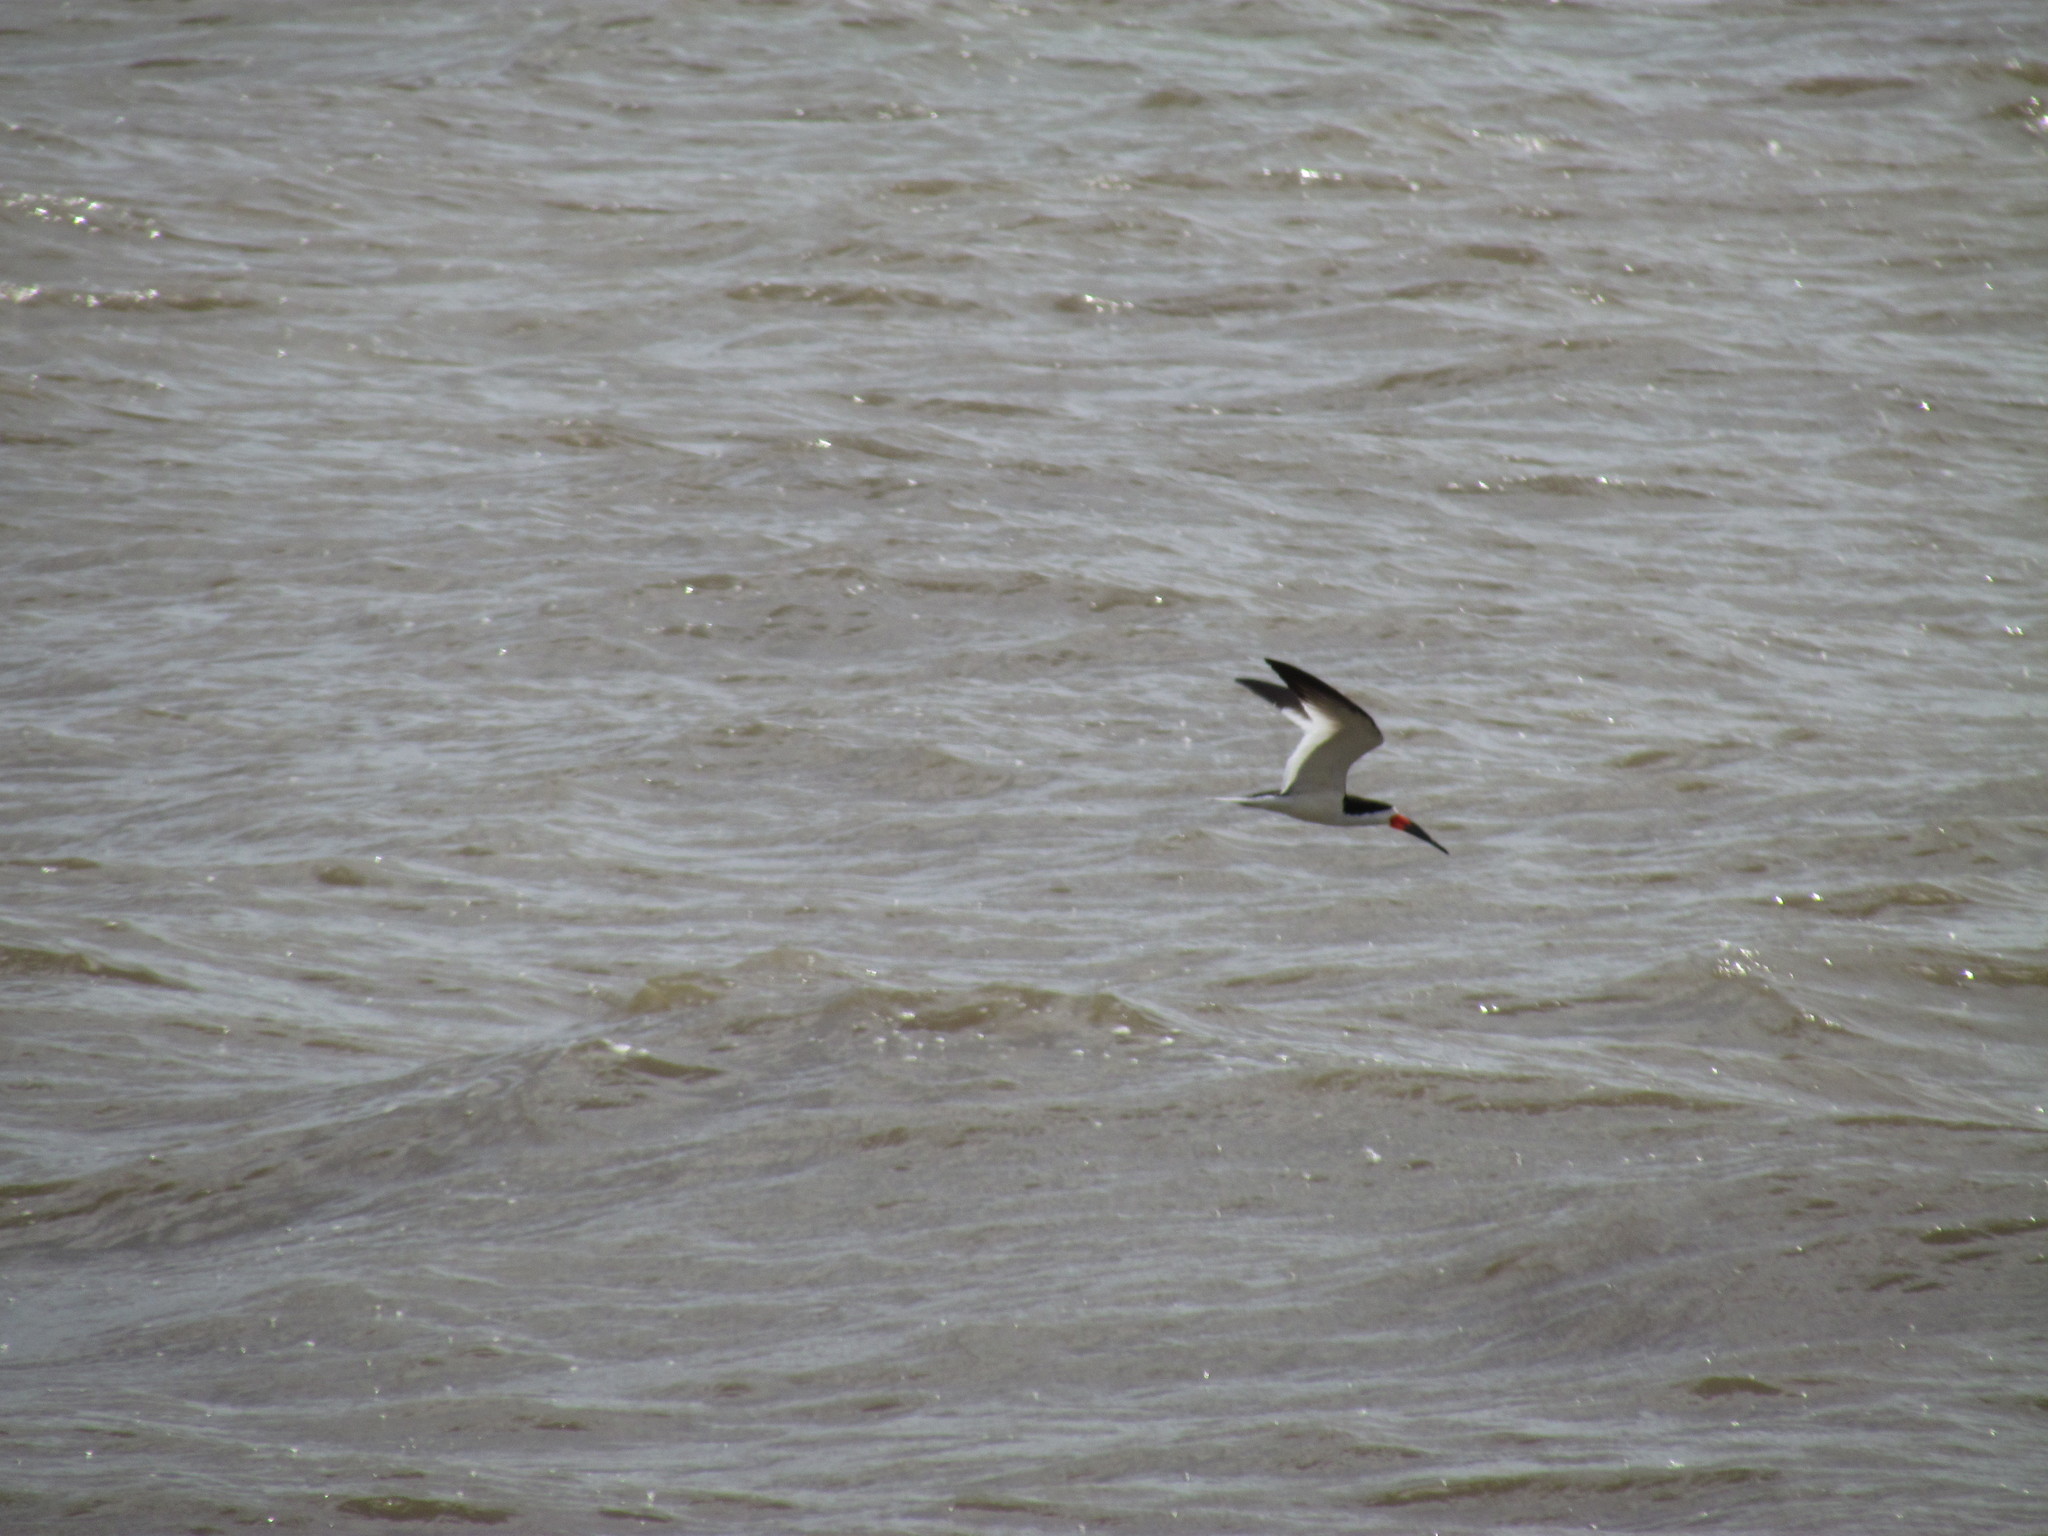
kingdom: Animalia
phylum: Chordata
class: Aves
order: Charadriiformes
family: Laridae
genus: Rynchops
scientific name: Rynchops niger
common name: Black skimmer
